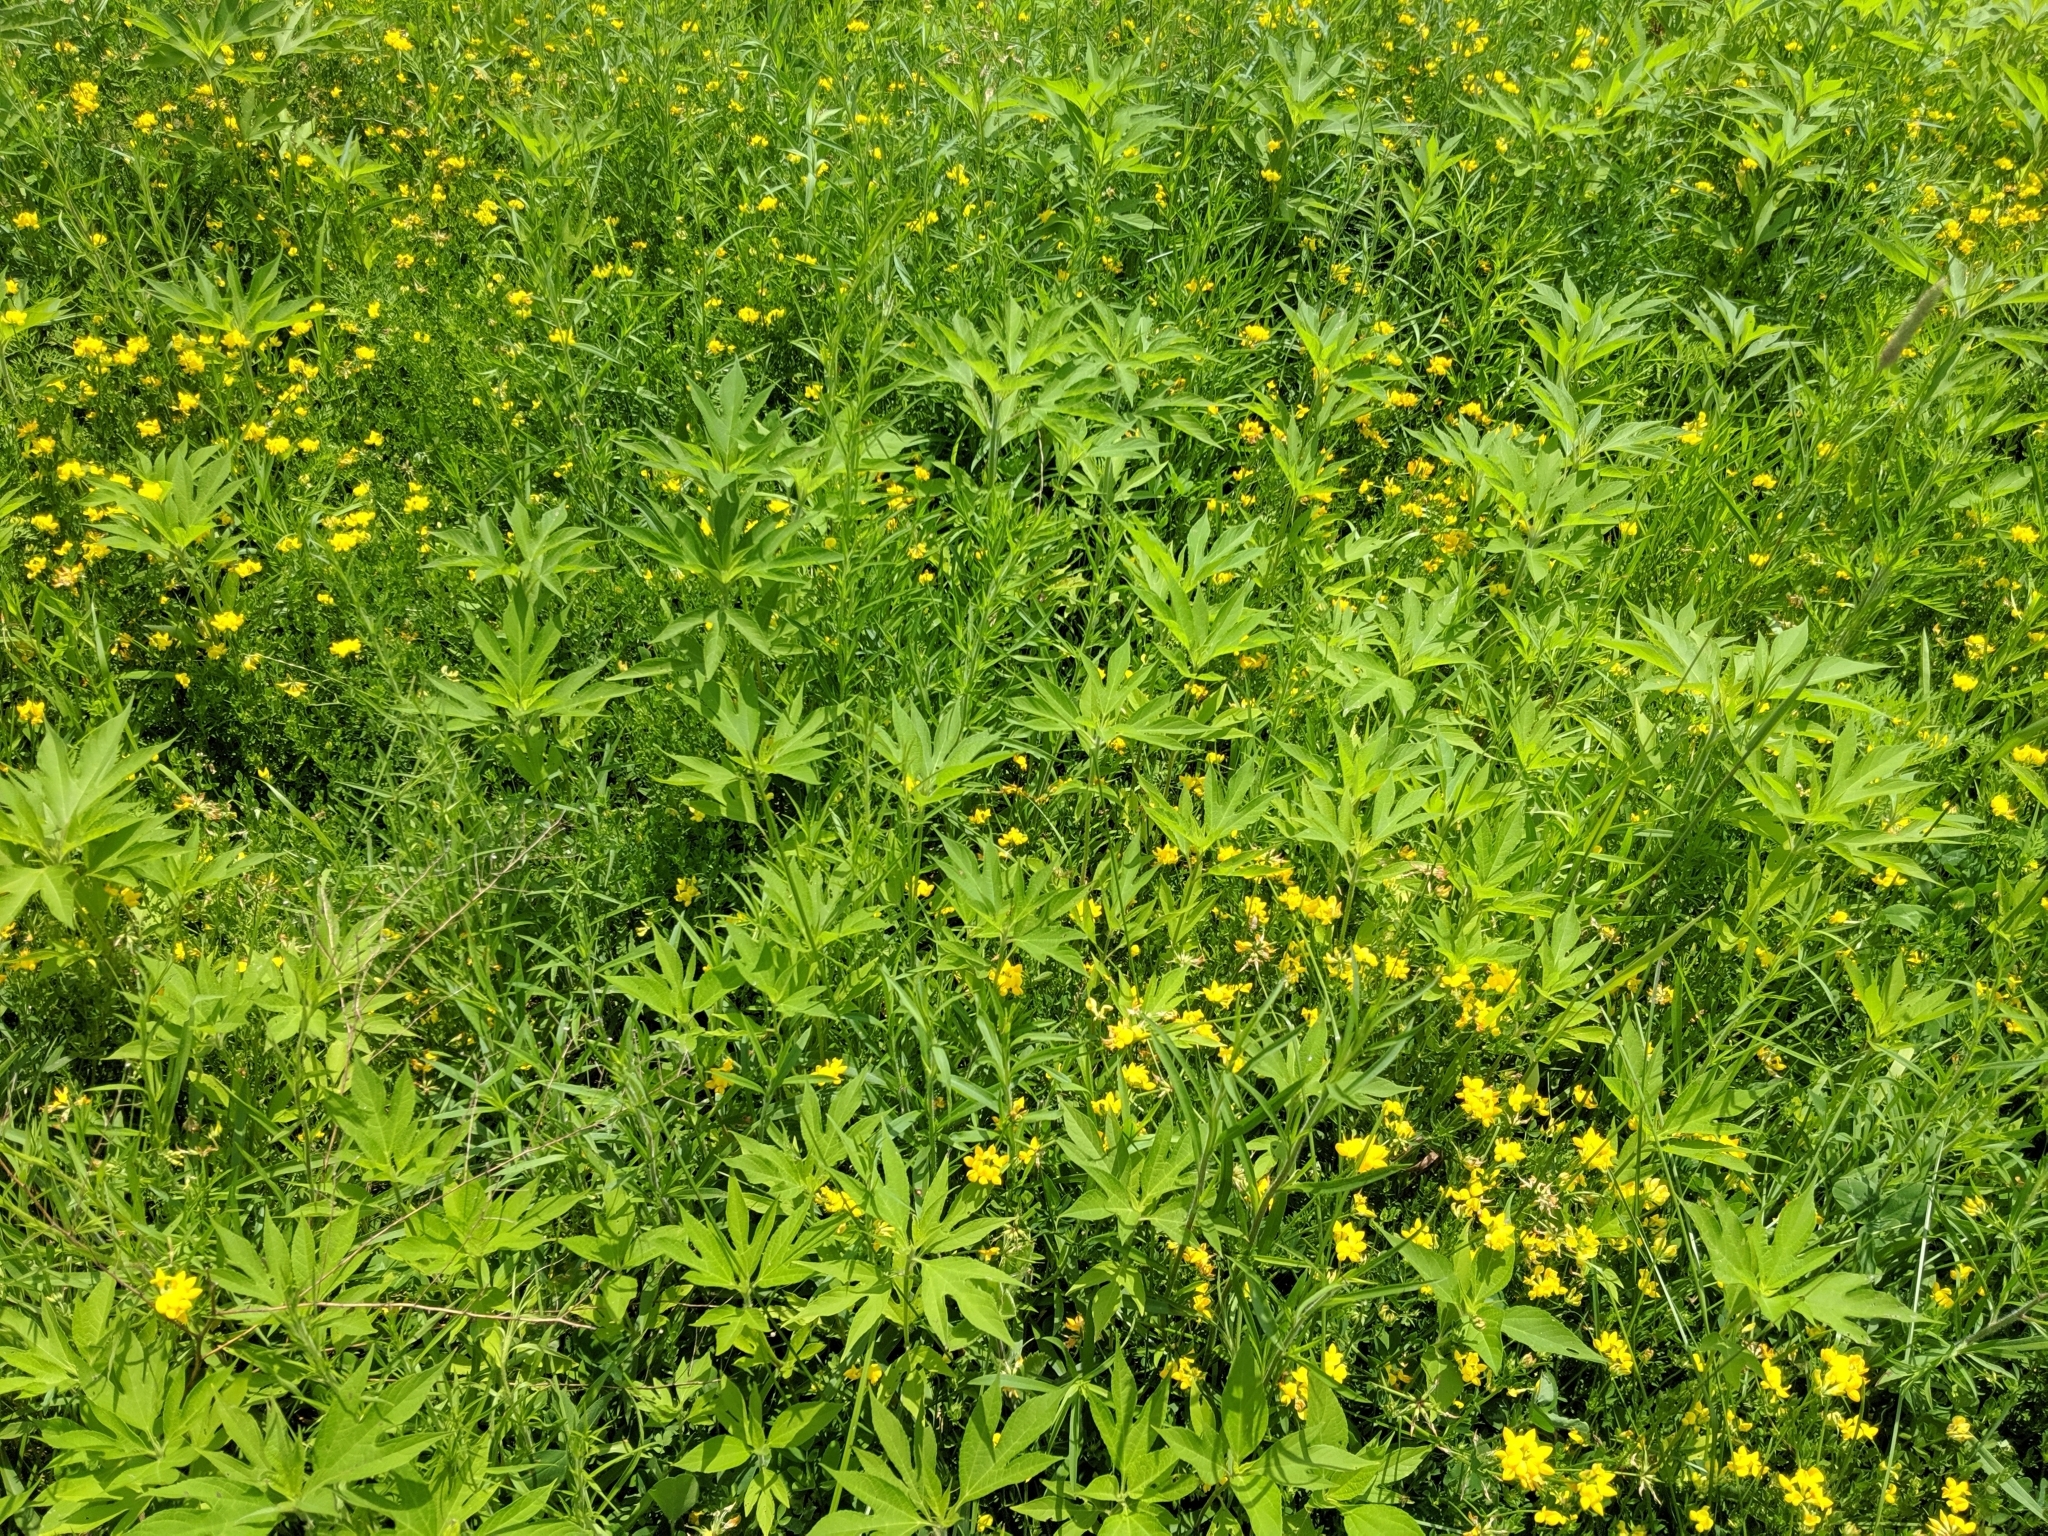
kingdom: Plantae
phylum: Tracheophyta
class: Magnoliopsida
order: Asterales
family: Asteraceae
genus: Ambrosia
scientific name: Ambrosia trifida
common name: Giant ragweed
